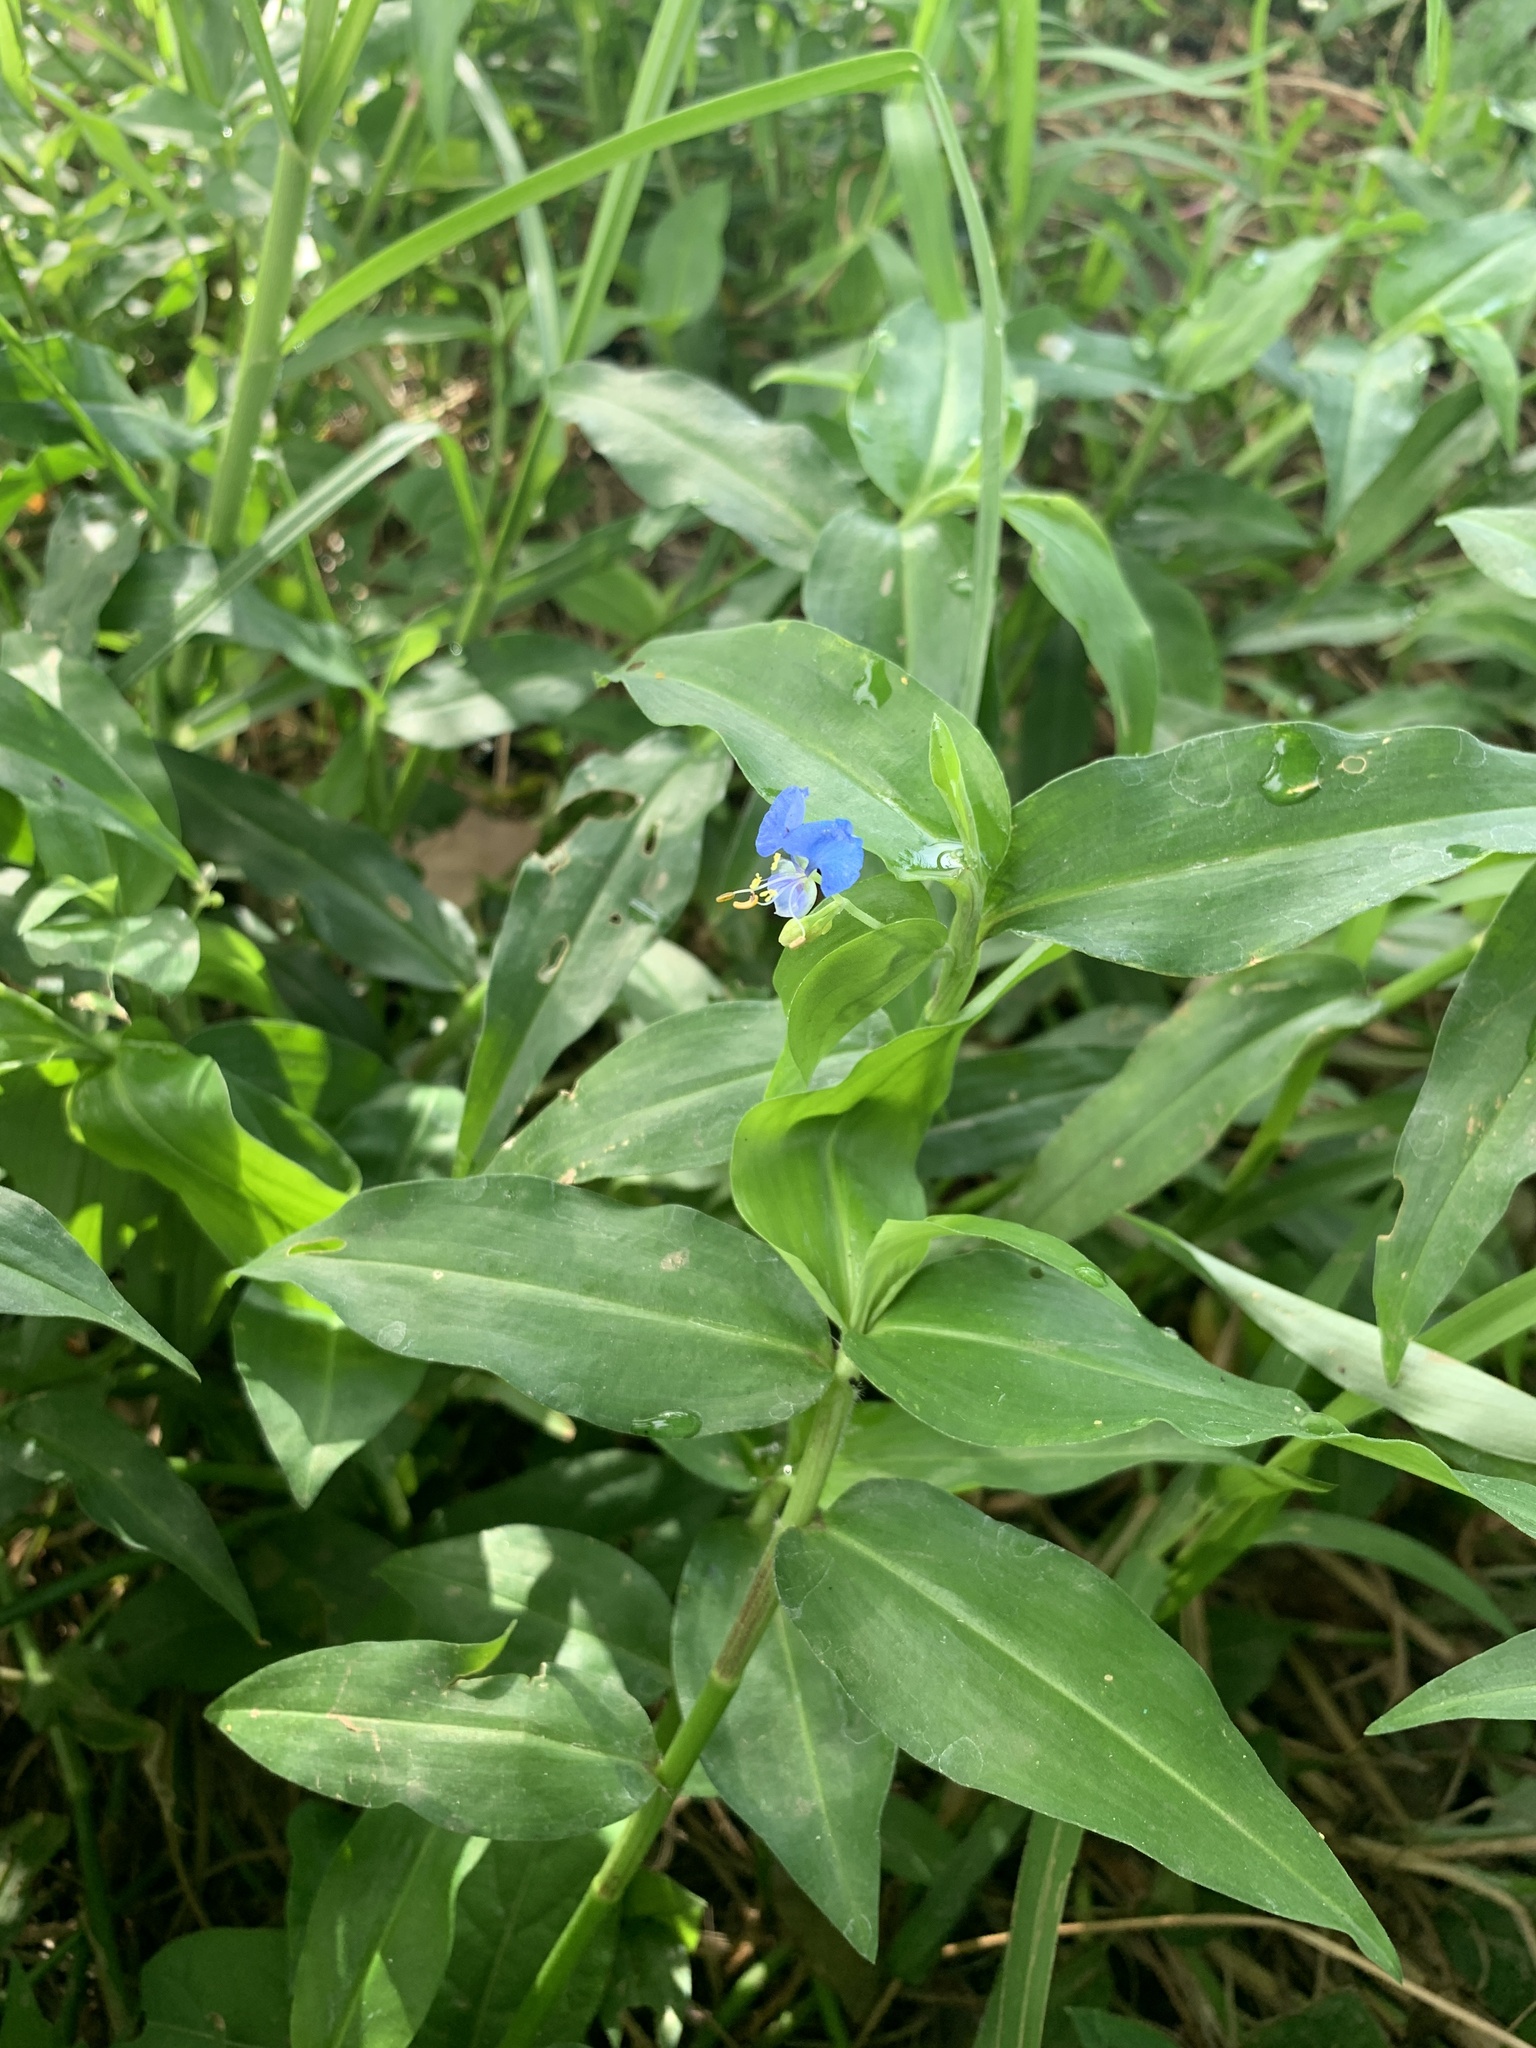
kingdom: Plantae
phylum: Tracheophyta
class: Liliopsida
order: Commelinales
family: Commelinaceae
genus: Commelina
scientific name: Commelina diffusa
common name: Climbing dayflower
